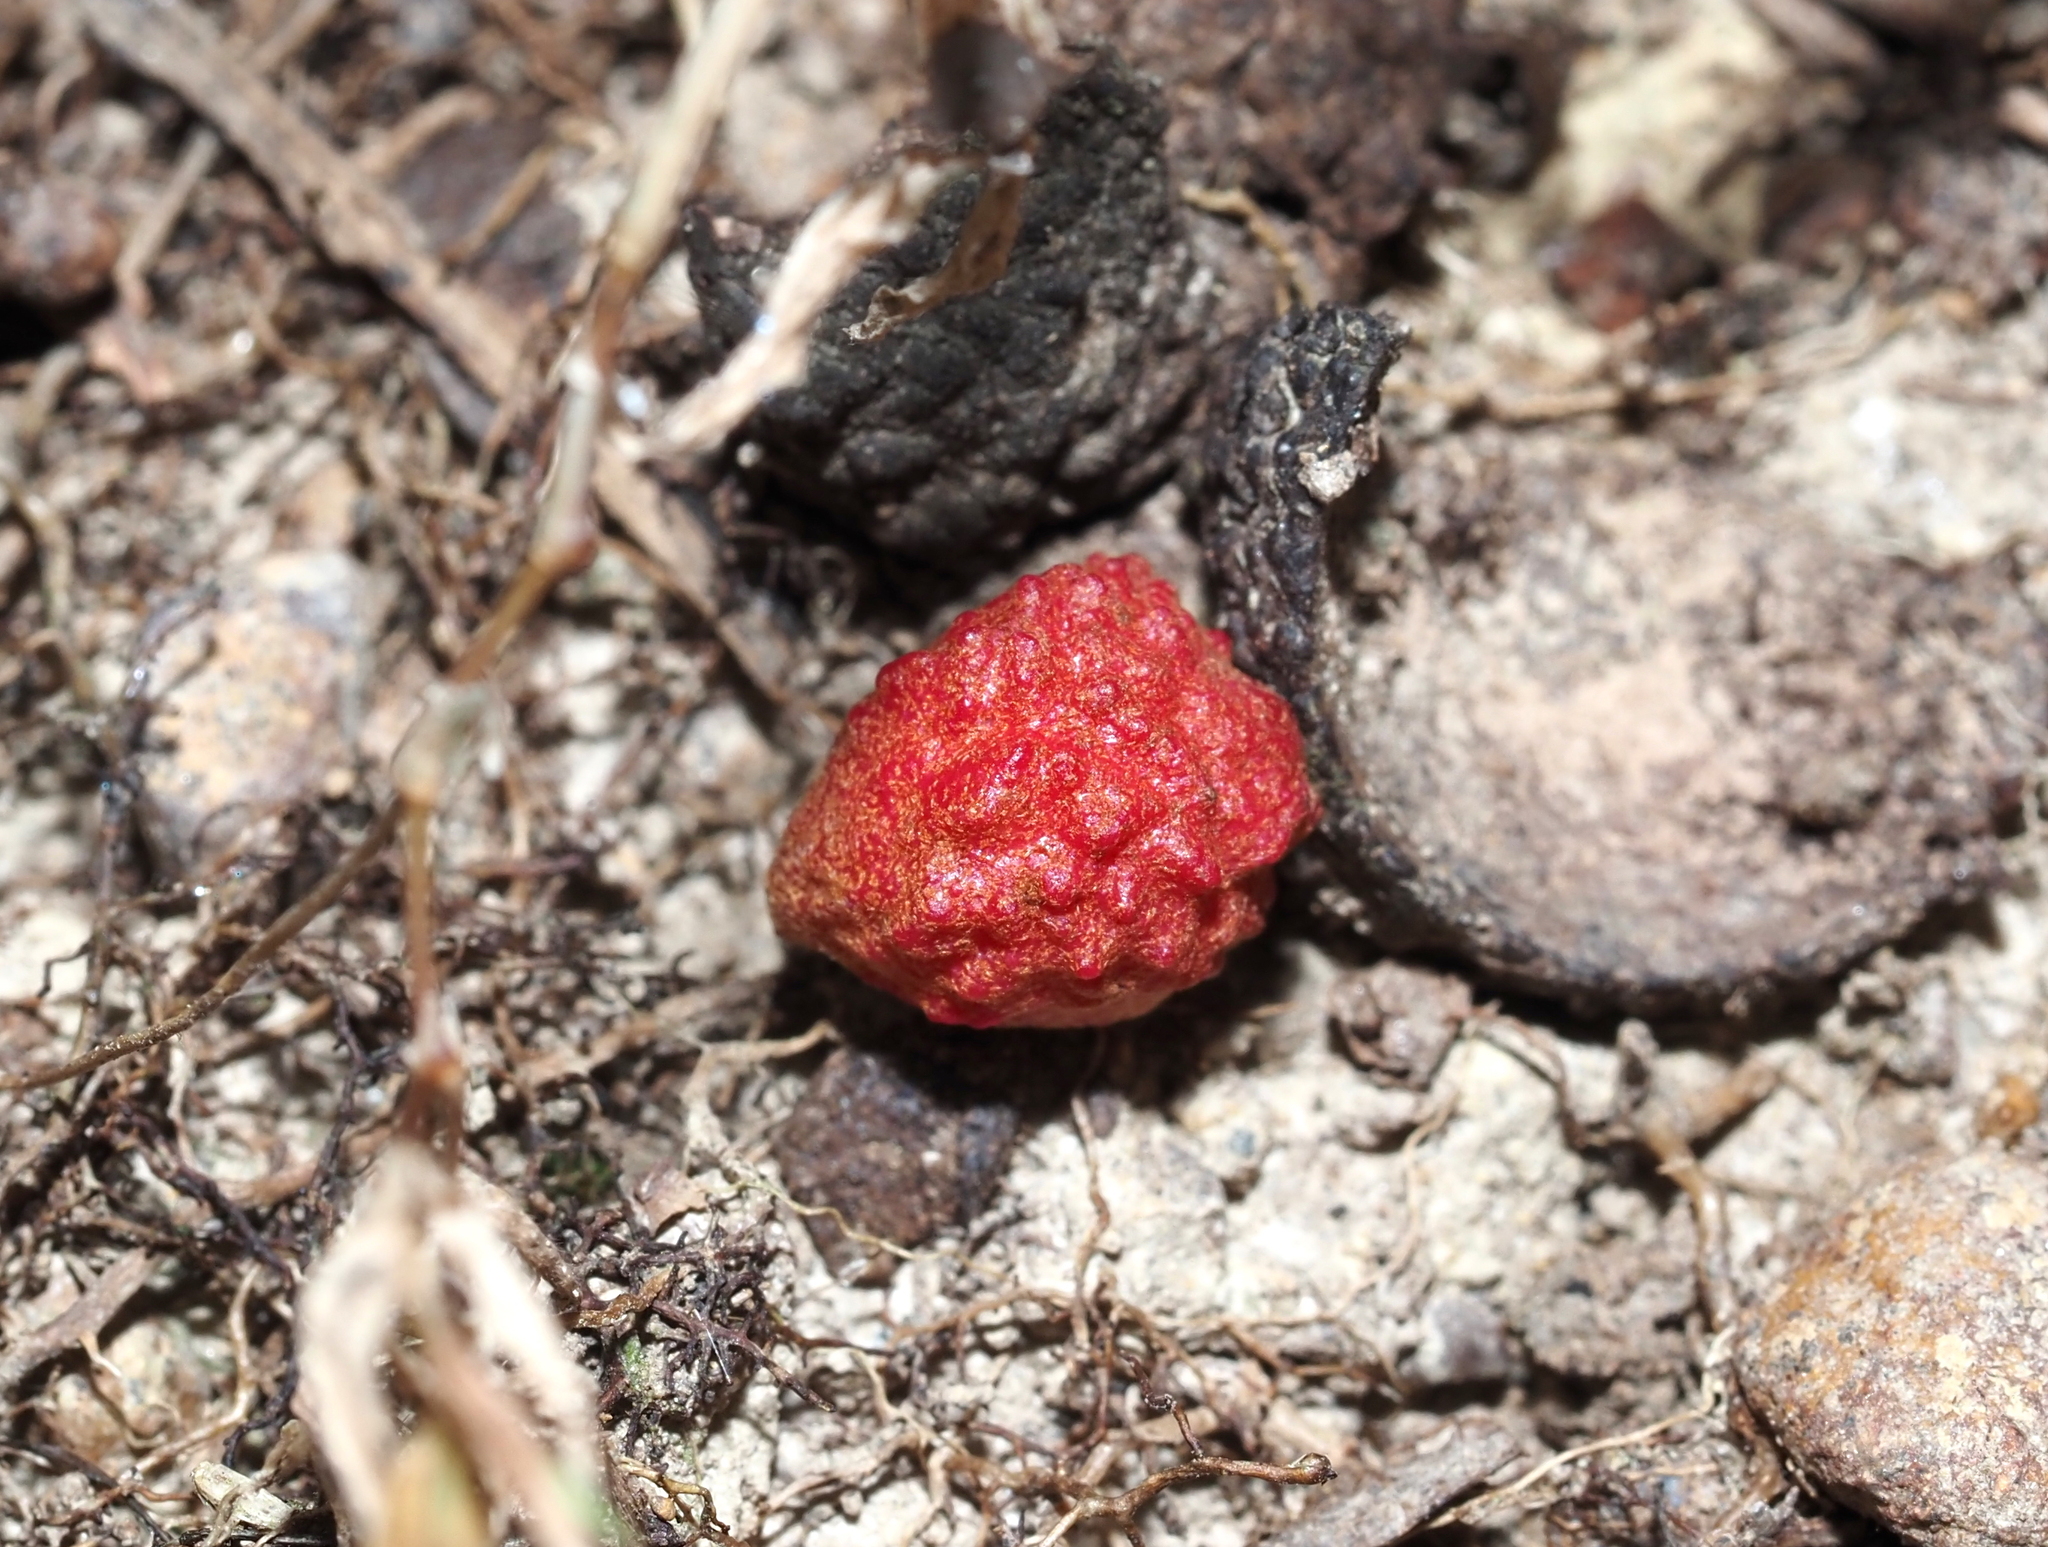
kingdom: Animalia
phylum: Arthropoda
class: Insecta
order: Hymenoptera
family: Cynipidae
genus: Andricus
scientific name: Andricus
